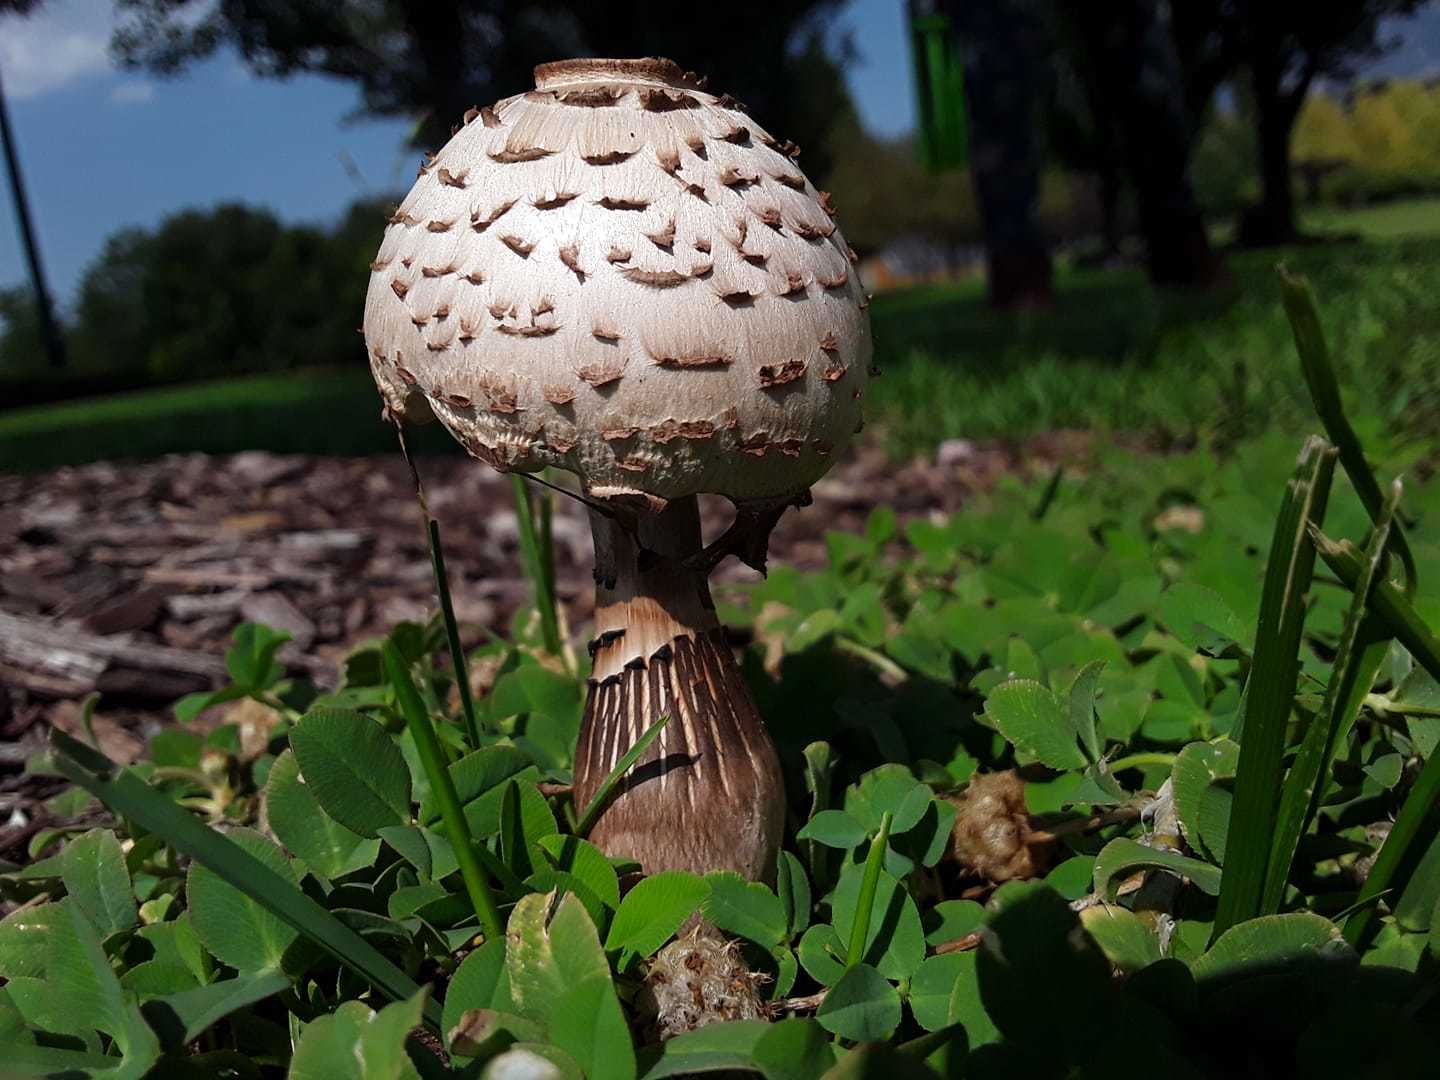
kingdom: Fungi
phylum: Basidiomycota
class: Agaricomycetes
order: Agaricales
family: Agaricaceae
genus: Chlorophyllum
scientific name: Chlorophyllum rhacodes
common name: Shaggy parasol
